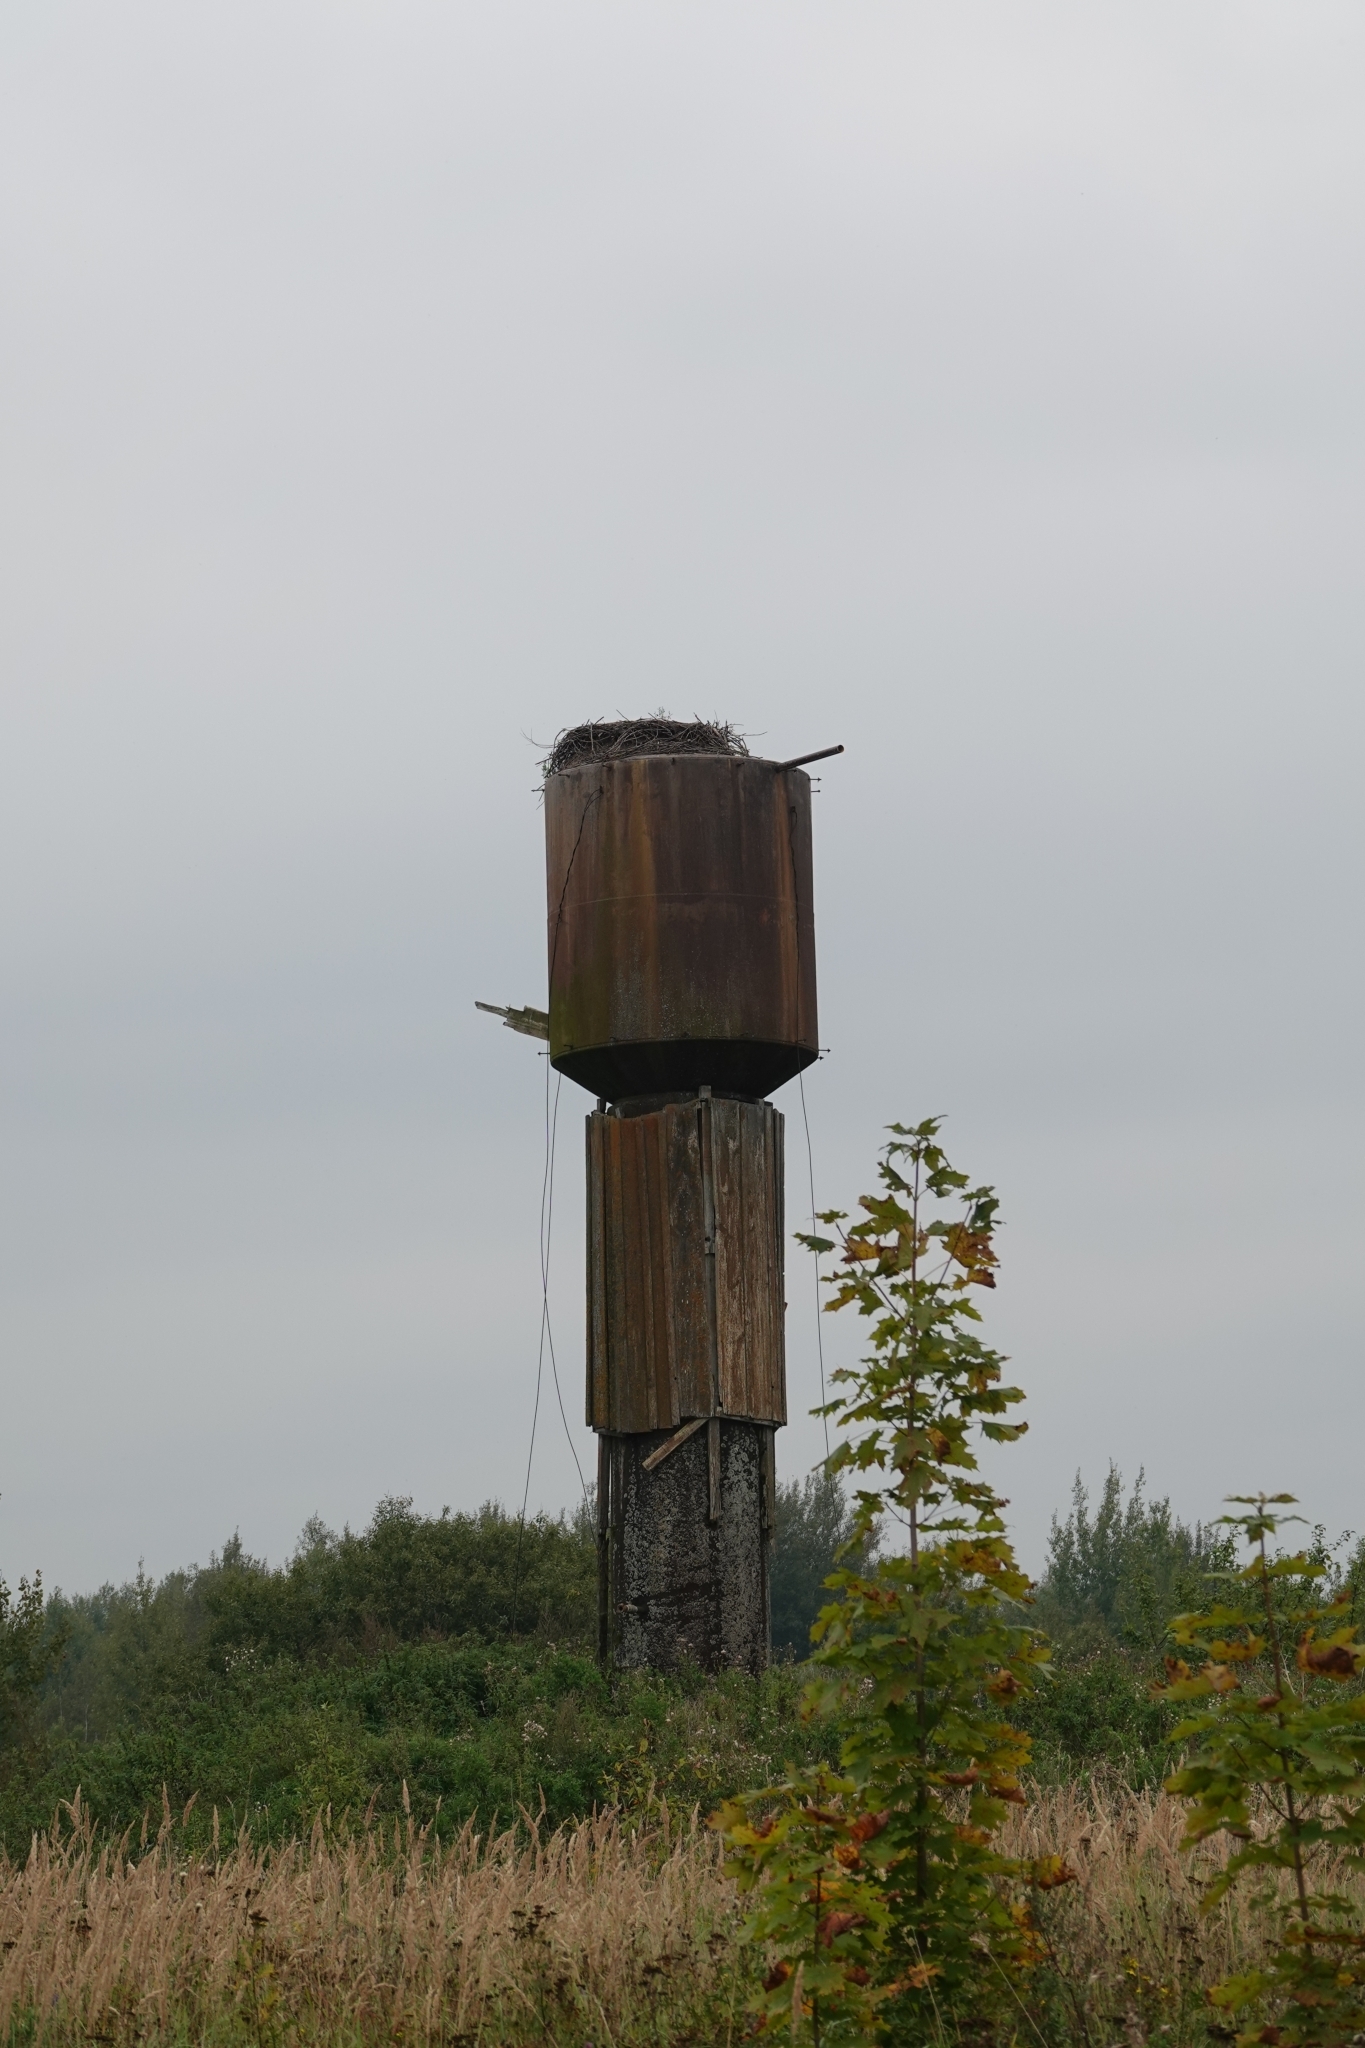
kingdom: Animalia
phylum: Chordata
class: Aves
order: Ciconiiformes
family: Ciconiidae
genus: Ciconia
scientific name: Ciconia ciconia
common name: White stork
